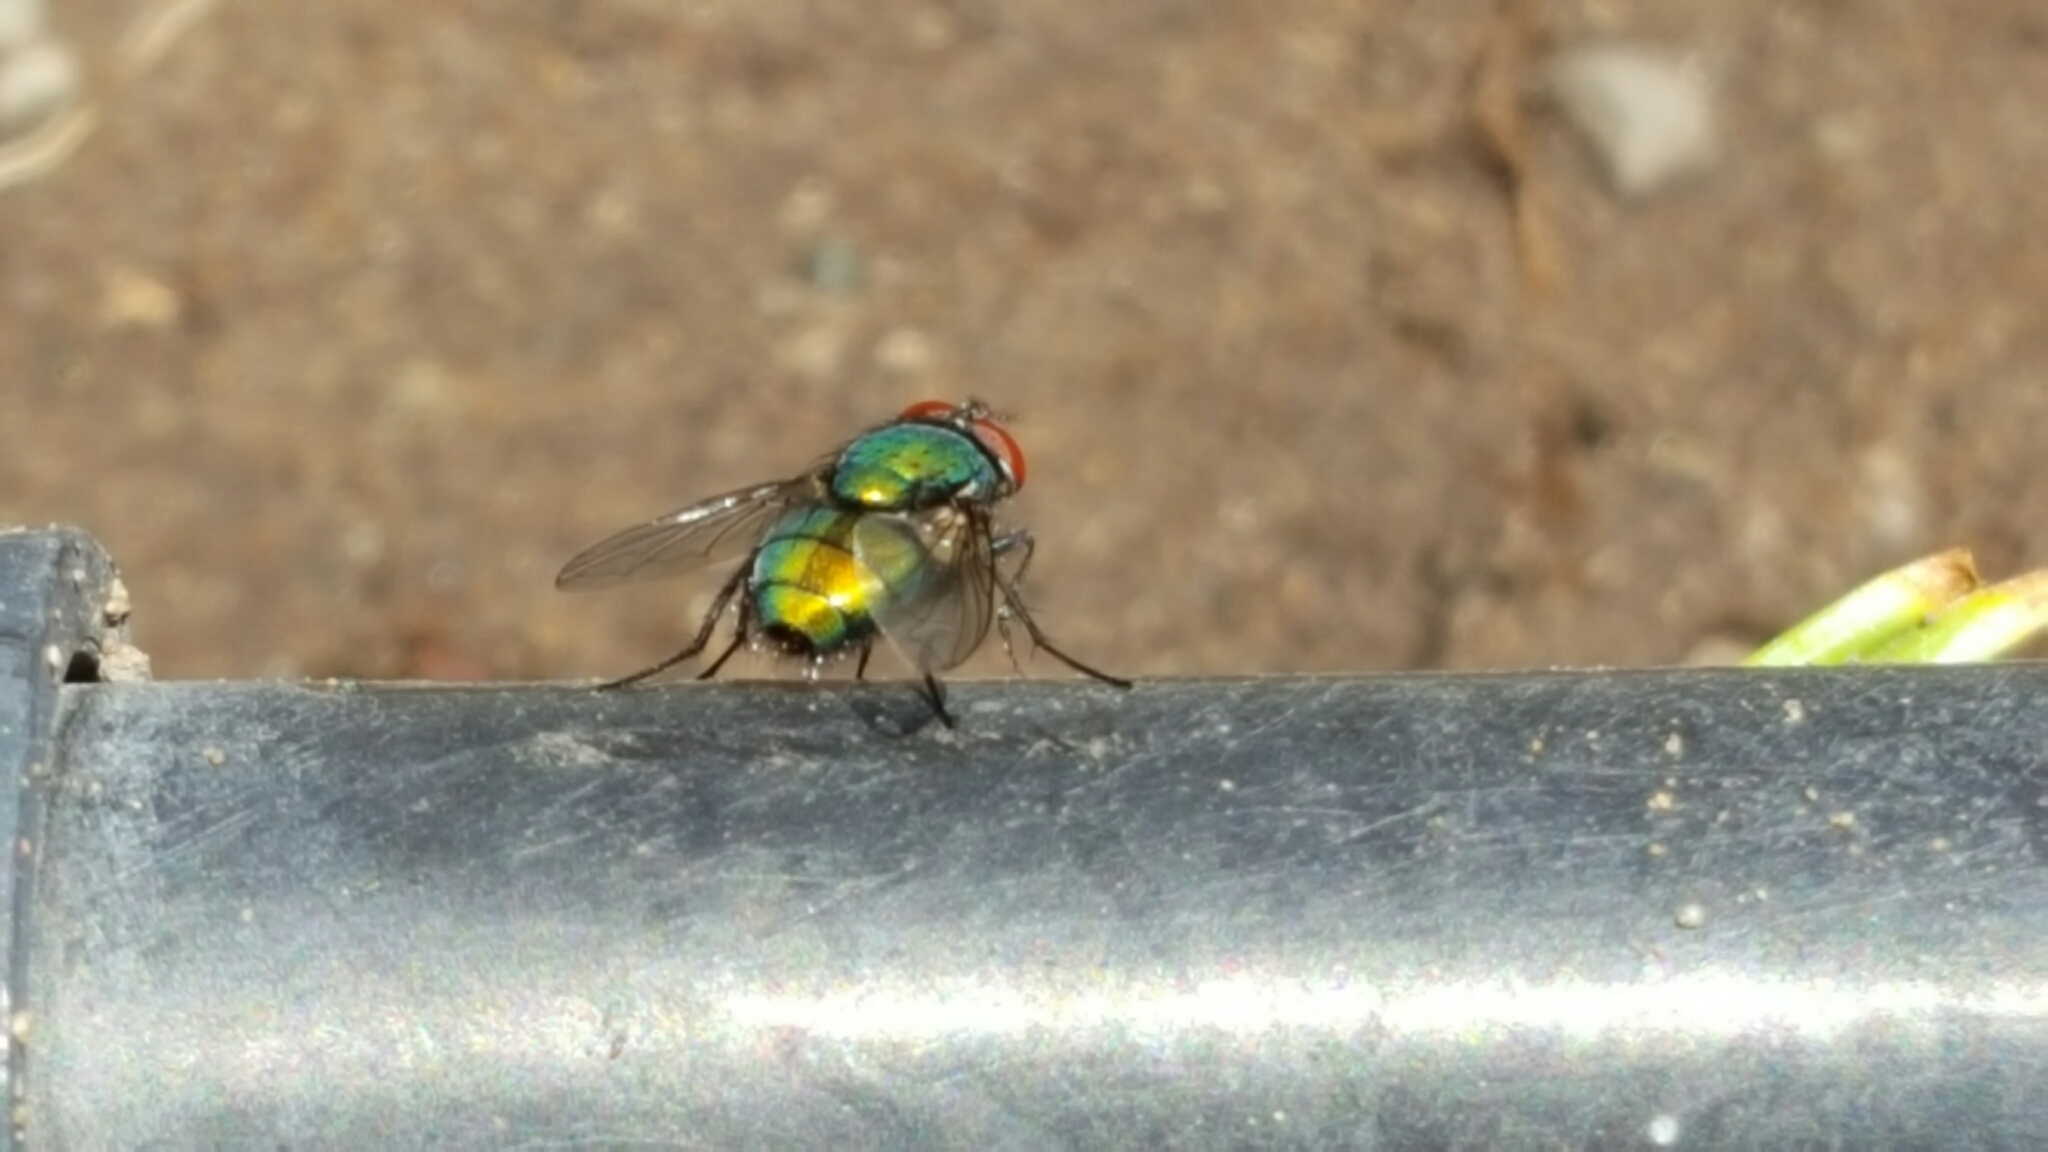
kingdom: Animalia
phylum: Arthropoda
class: Insecta
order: Diptera
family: Calliphoridae
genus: Lucilia
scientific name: Lucilia sericata
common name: Blow fly
